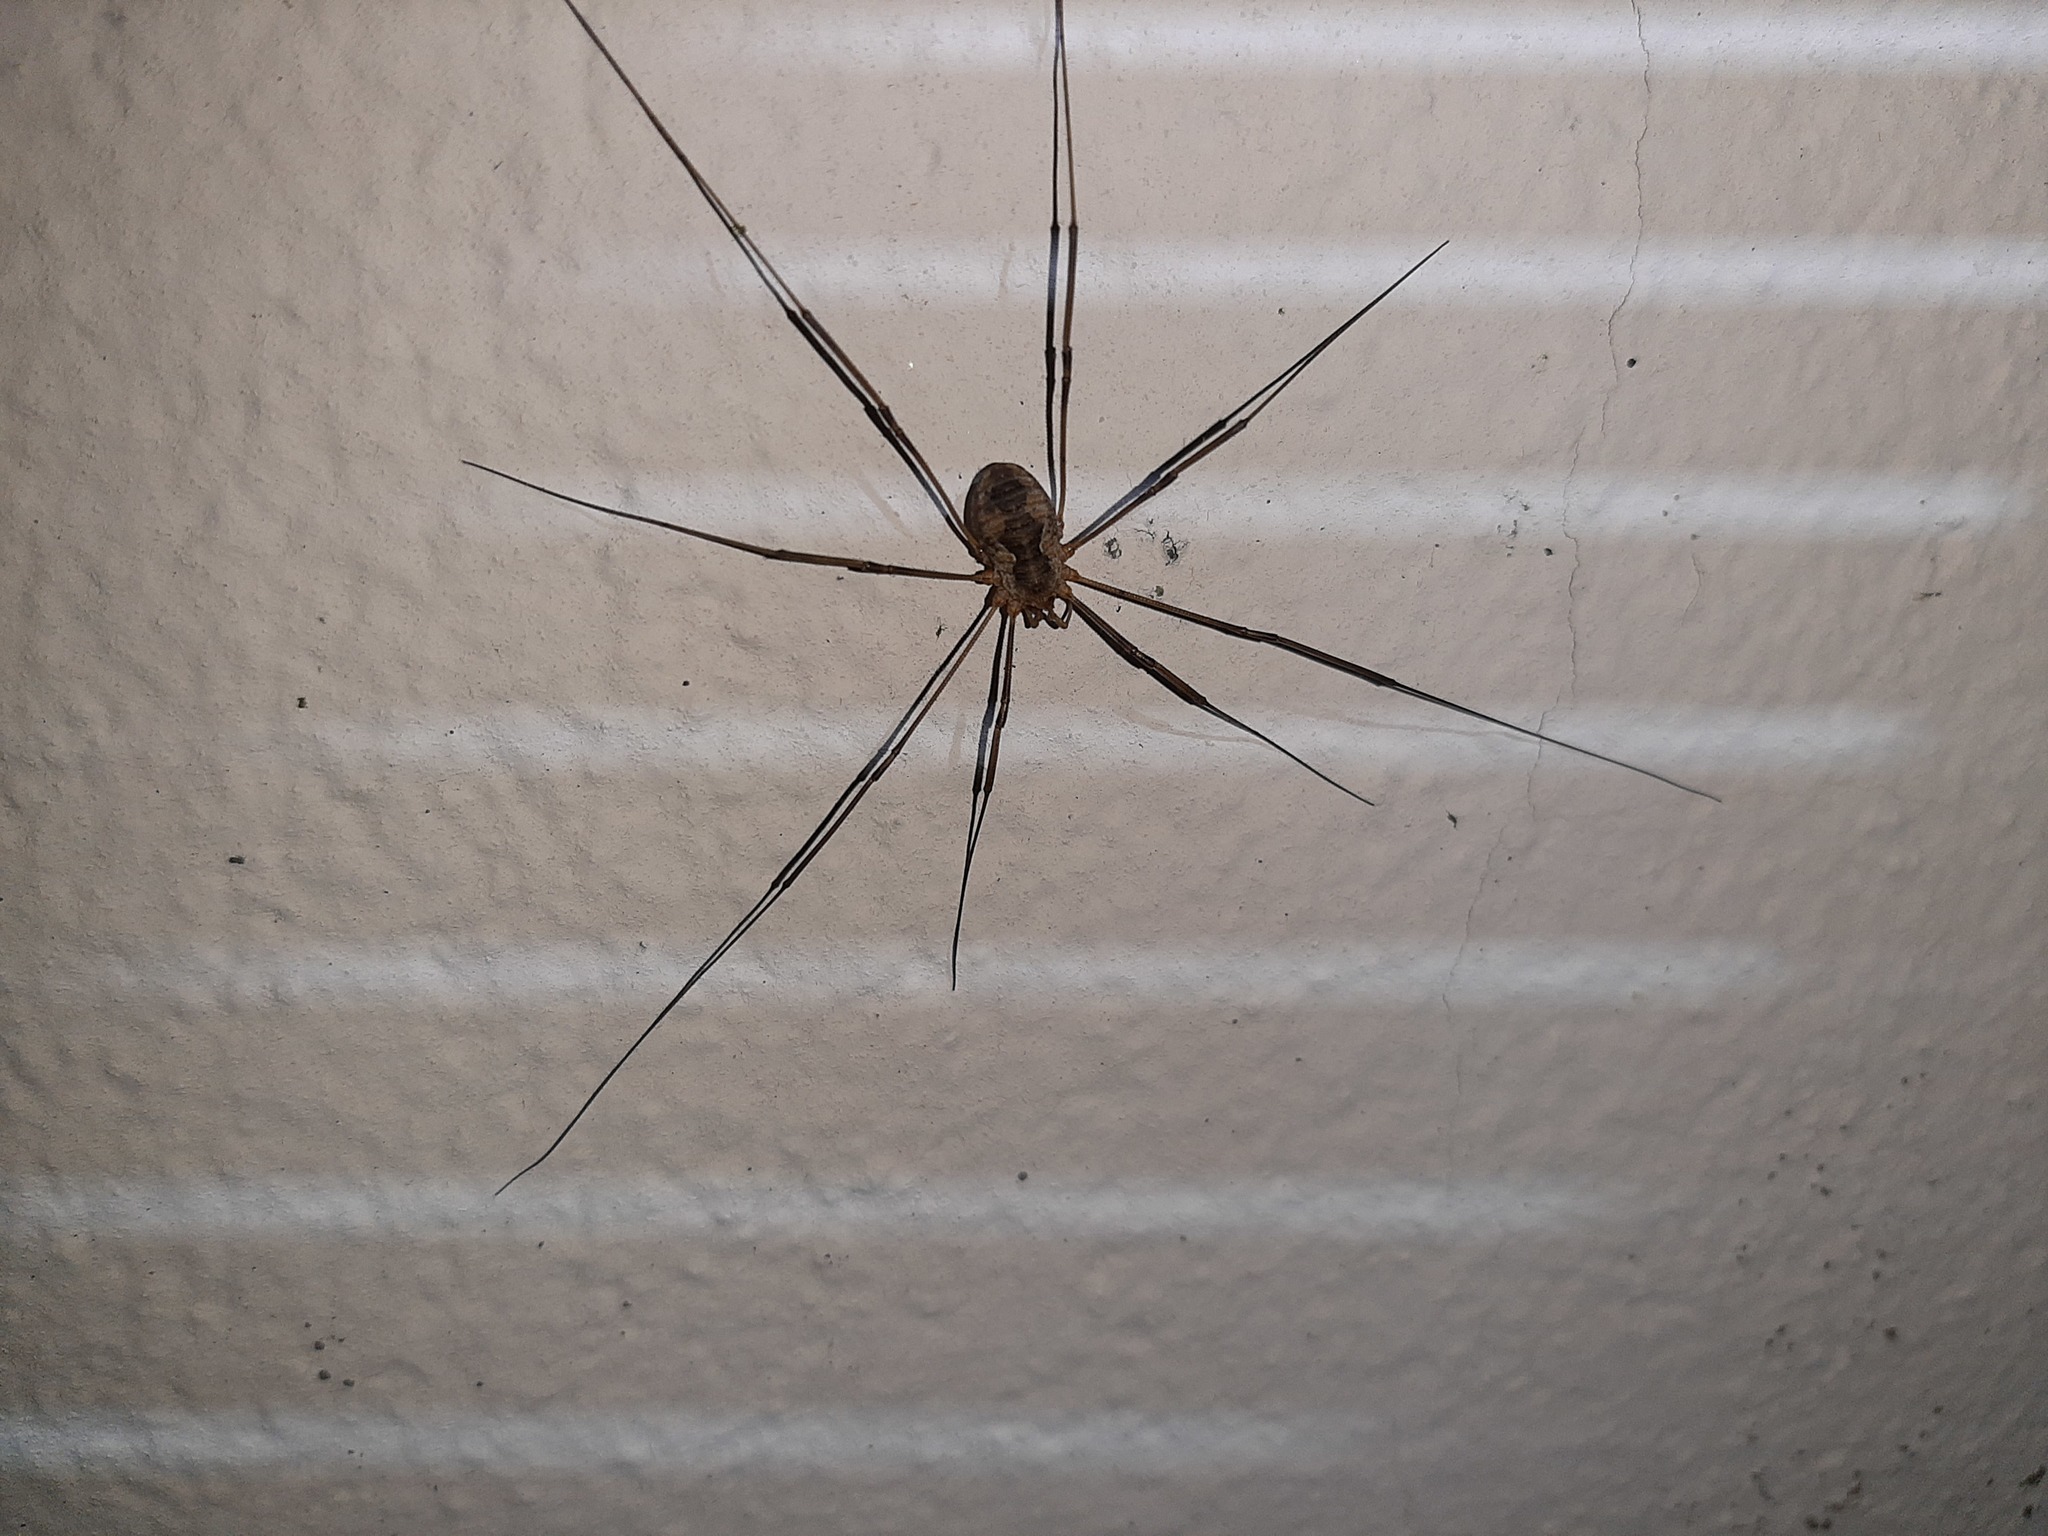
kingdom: Animalia
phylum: Arthropoda
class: Arachnida
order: Opiliones
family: Phalangiidae
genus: Phalangium
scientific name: Phalangium opilio
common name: Daddy longleg
